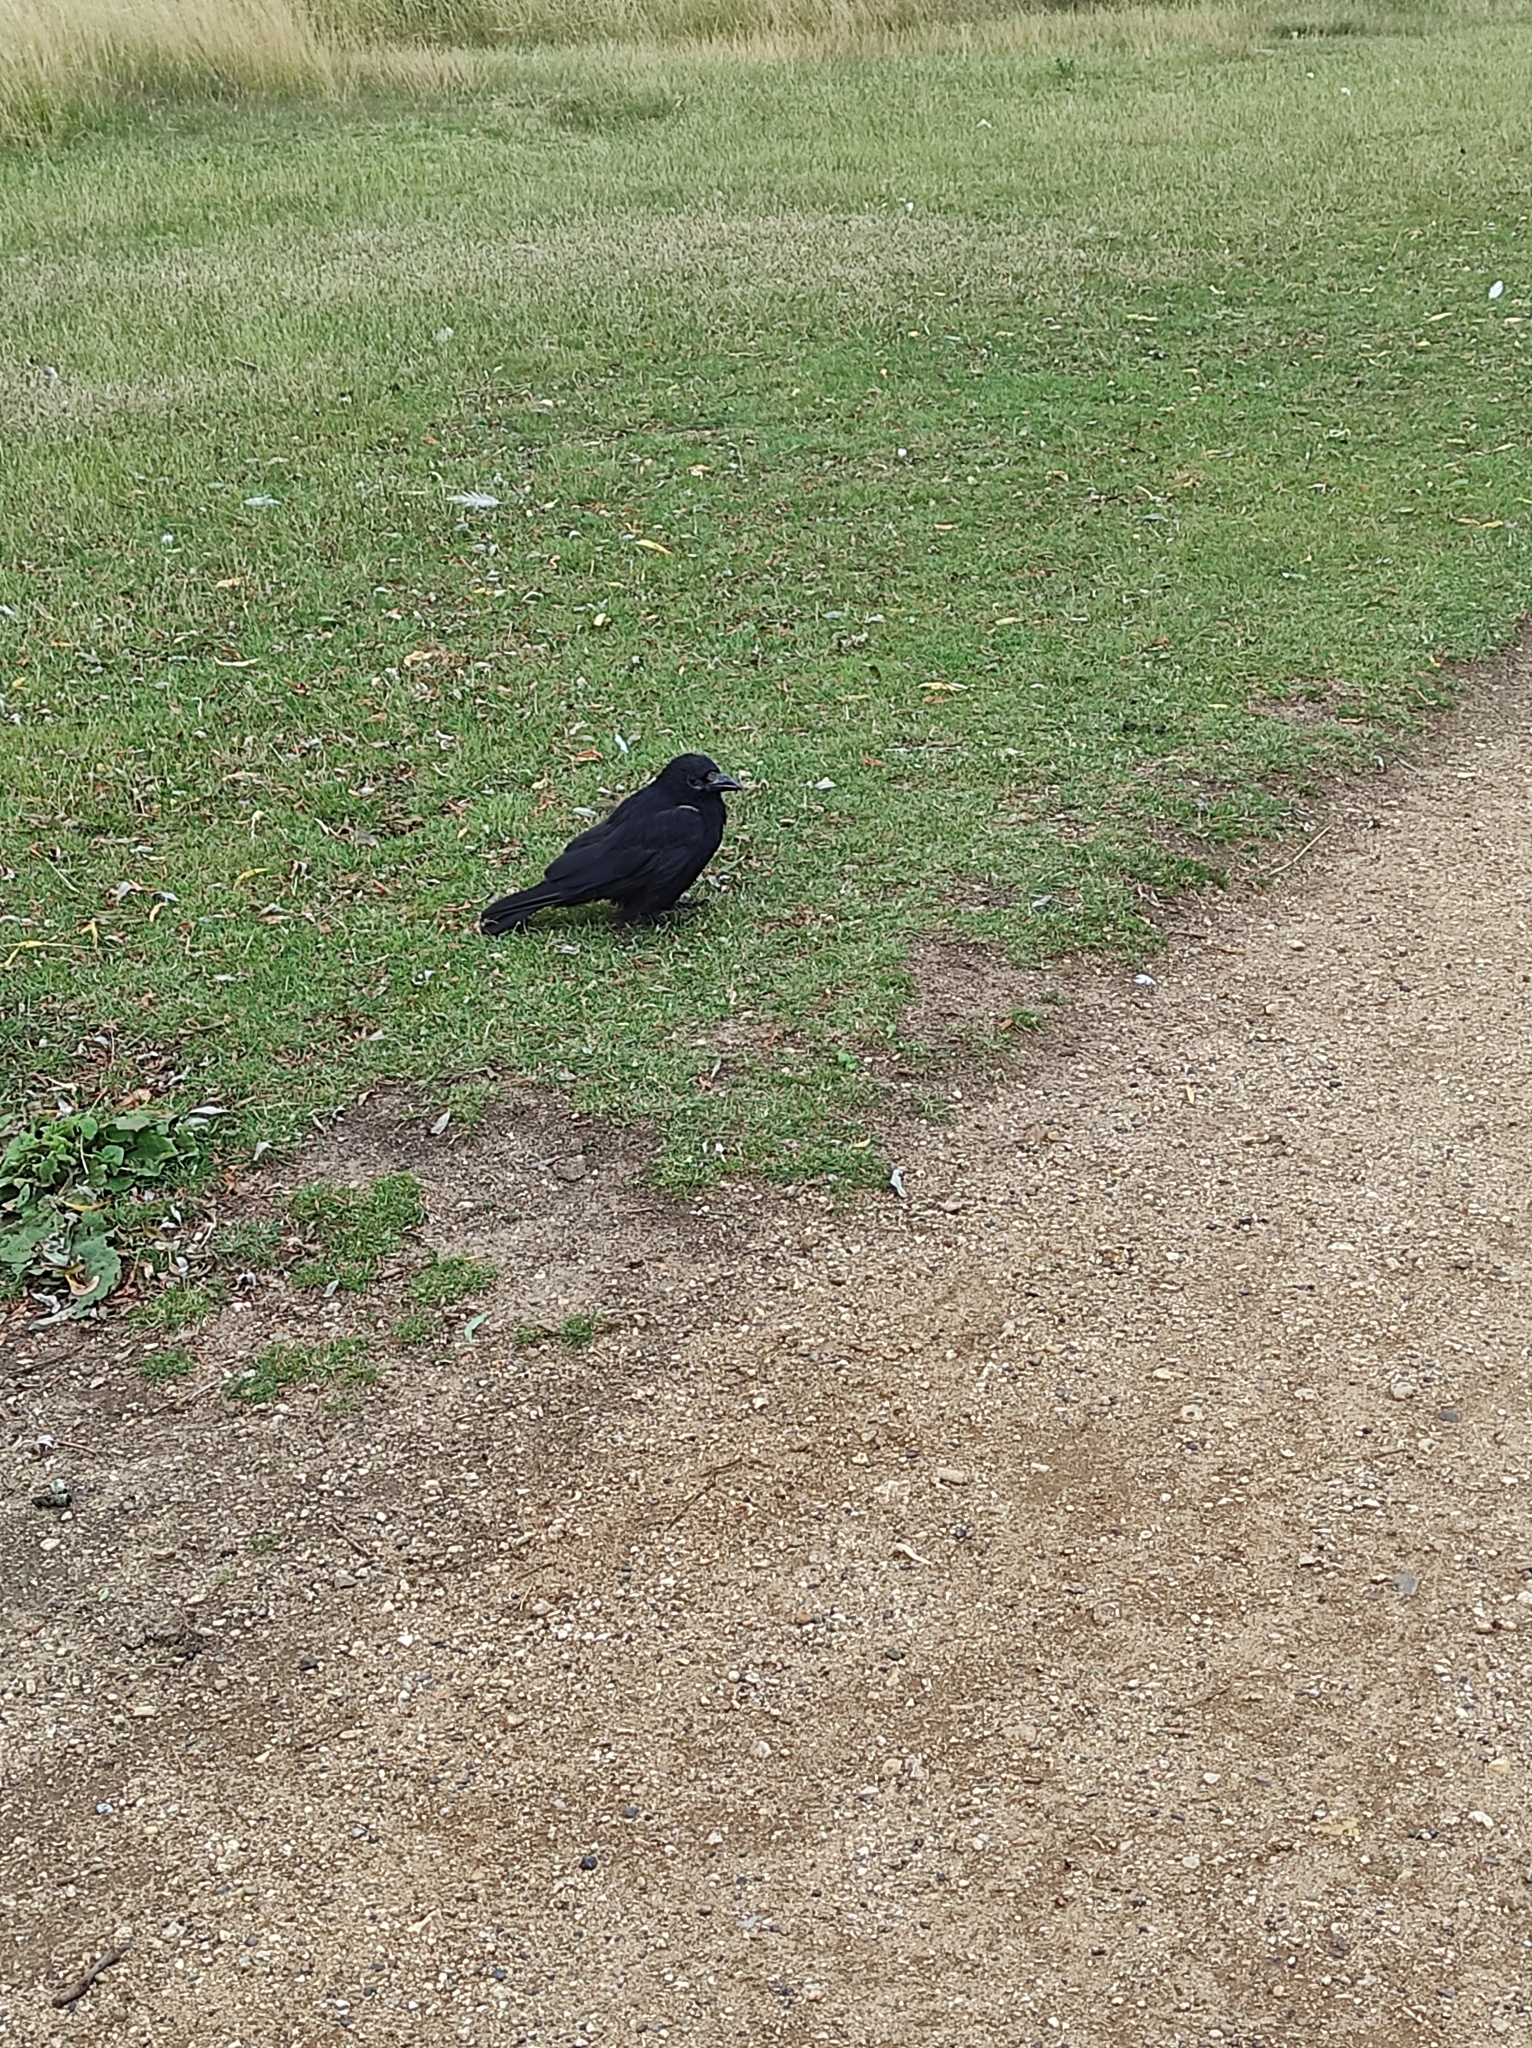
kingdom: Animalia
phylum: Chordata
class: Aves
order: Passeriformes
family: Corvidae
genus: Corvus
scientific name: Corvus corone
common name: Carrion crow
